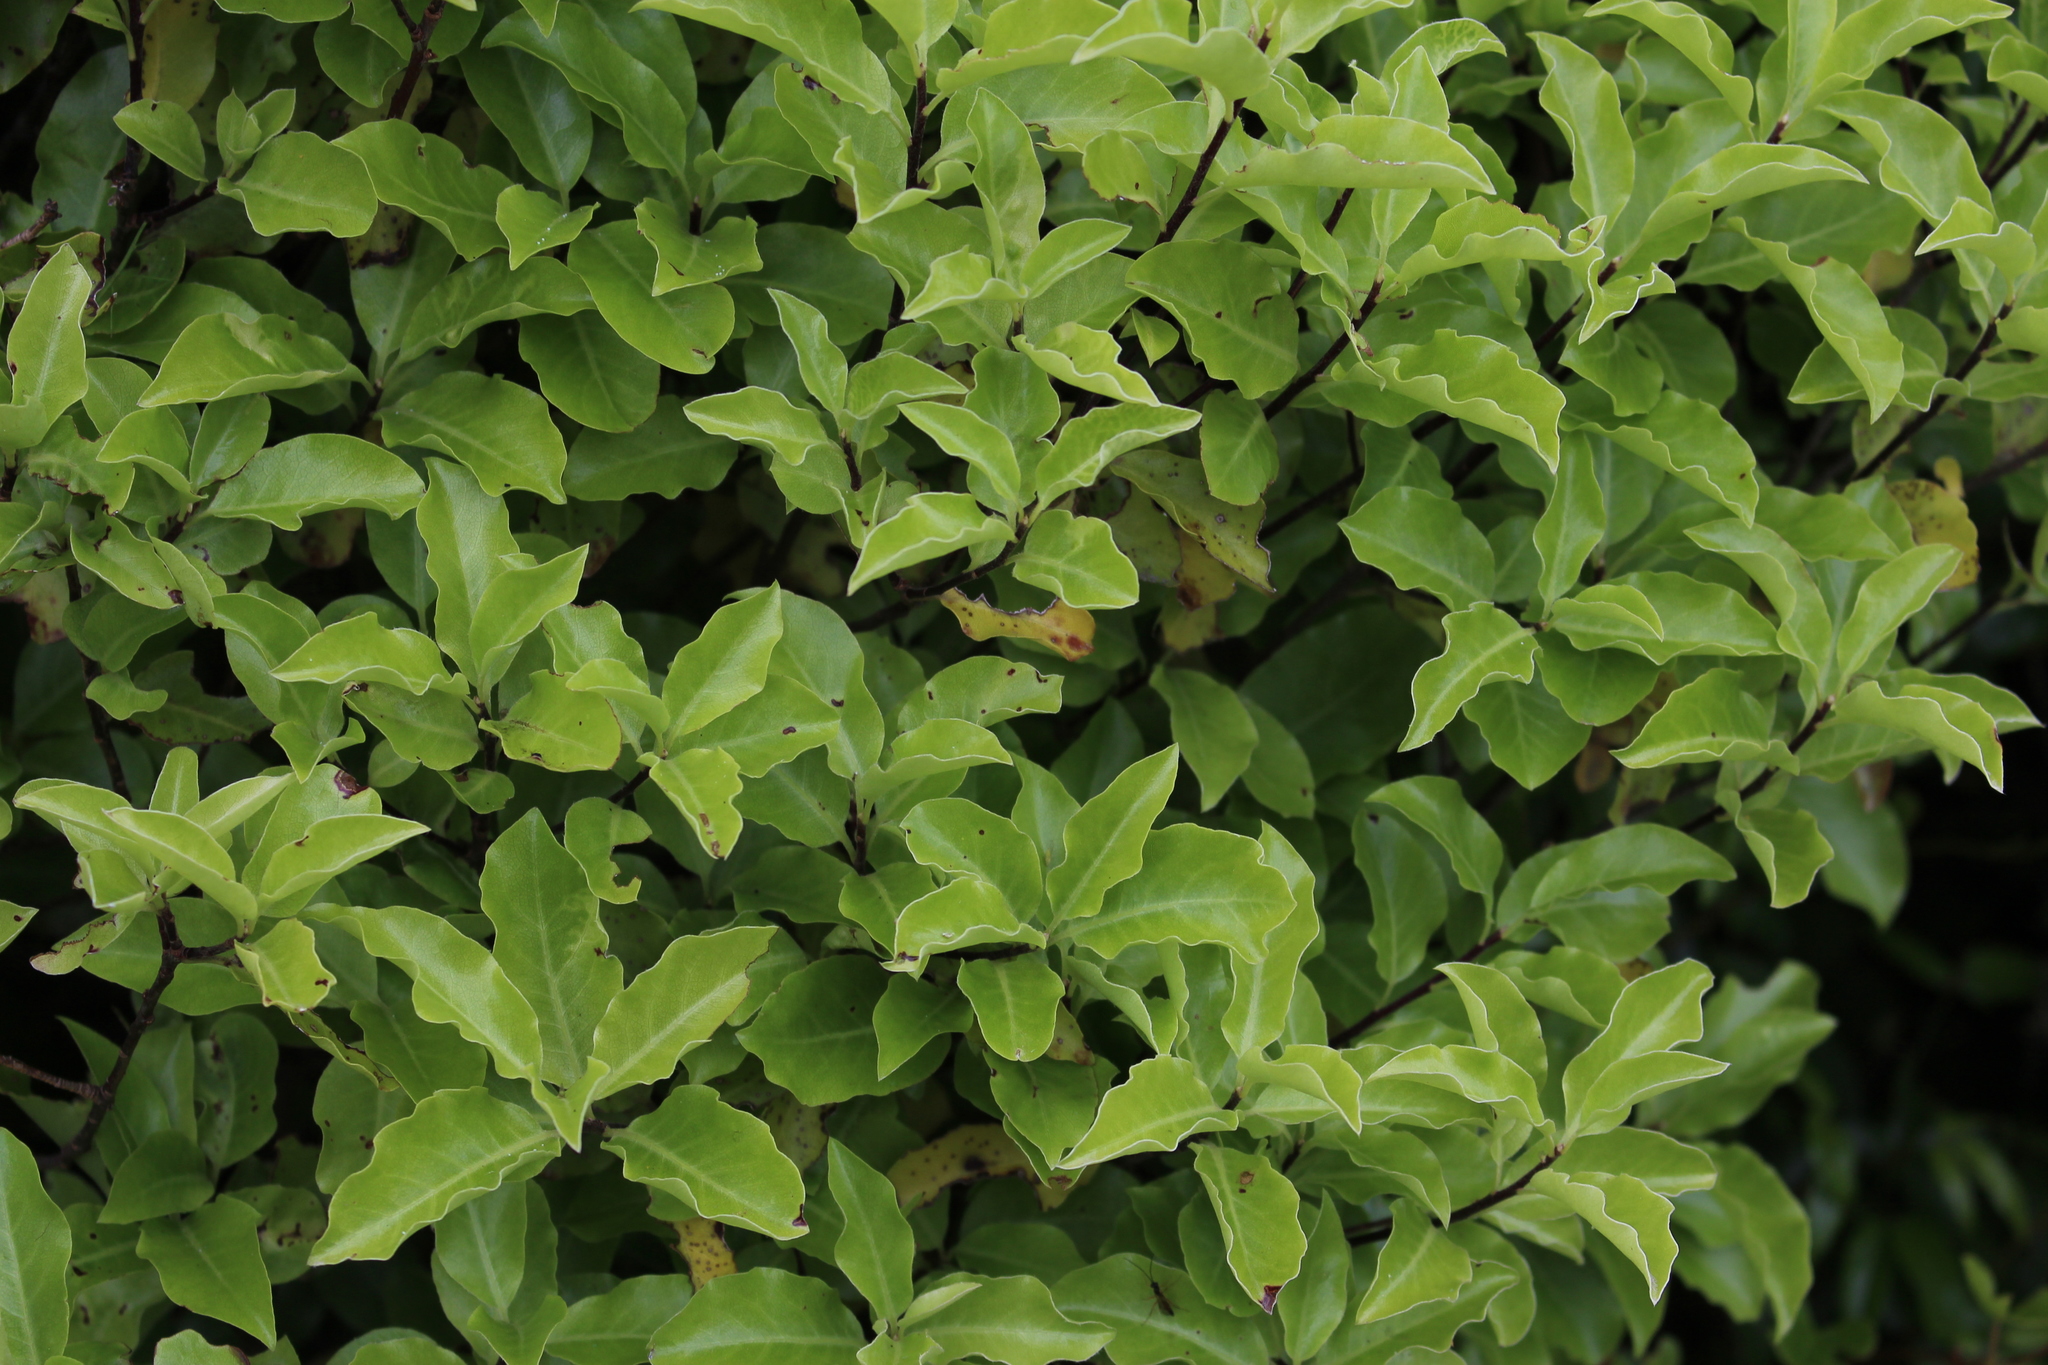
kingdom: Plantae
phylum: Tracheophyta
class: Magnoliopsida
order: Apiales
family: Pittosporaceae
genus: Pittosporum
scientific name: Pittosporum tenuifolium
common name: Kohuhu
